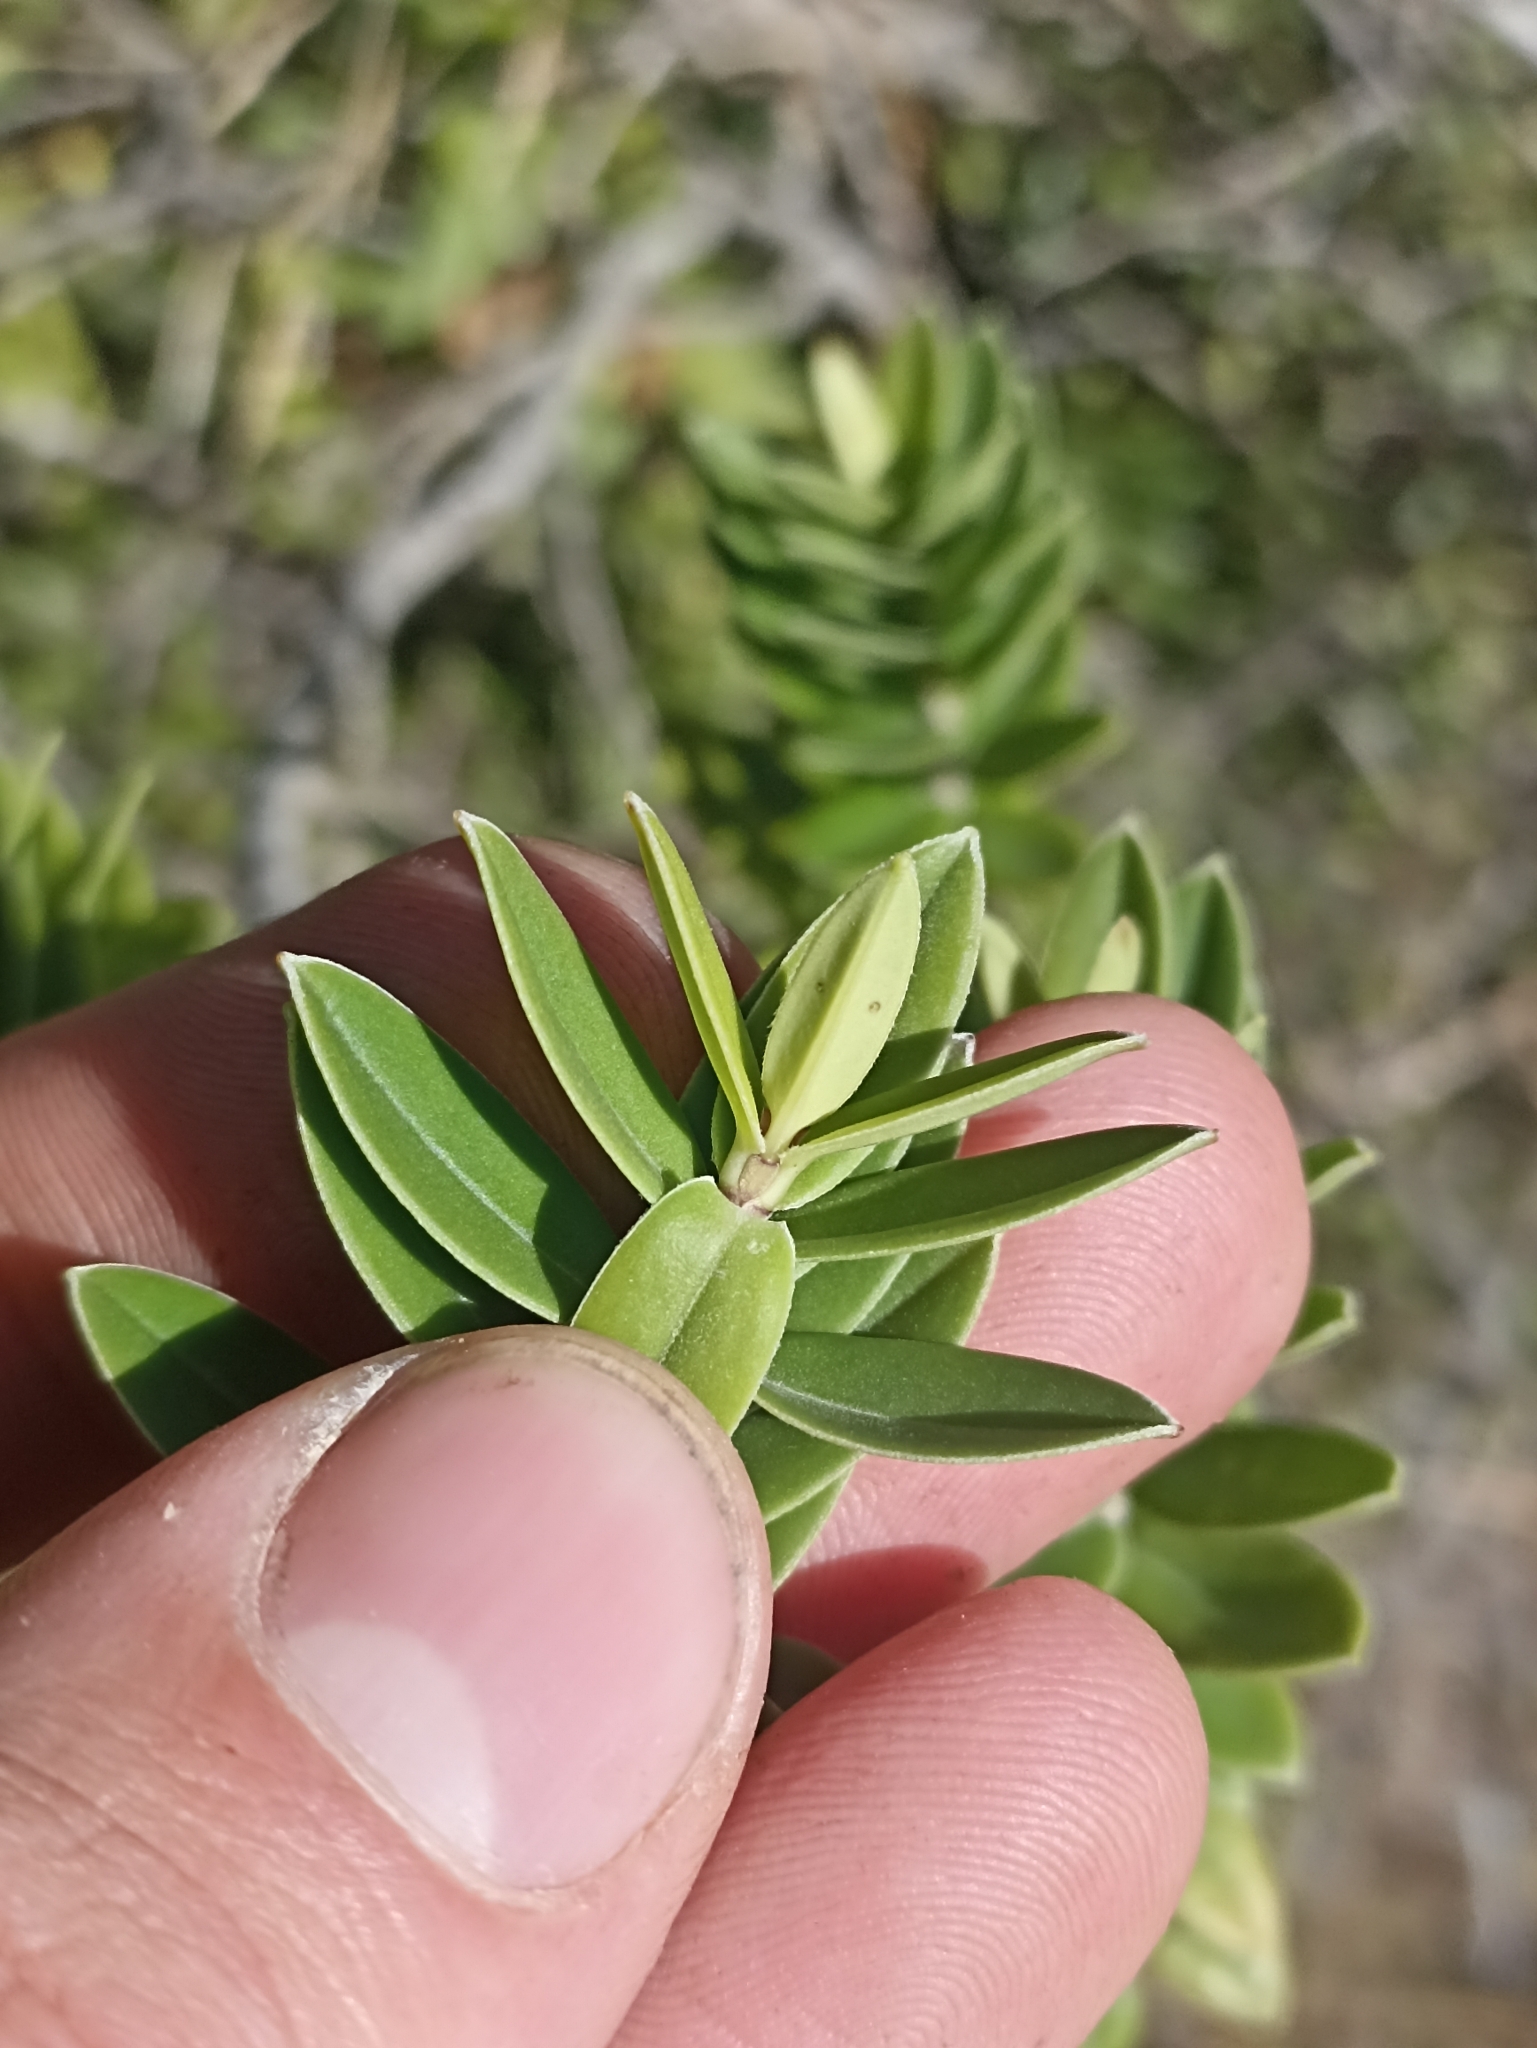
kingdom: Plantae
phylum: Tracheophyta
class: Magnoliopsida
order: Lamiales
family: Plantaginaceae
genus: Veronica
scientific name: Veronica elliptica
